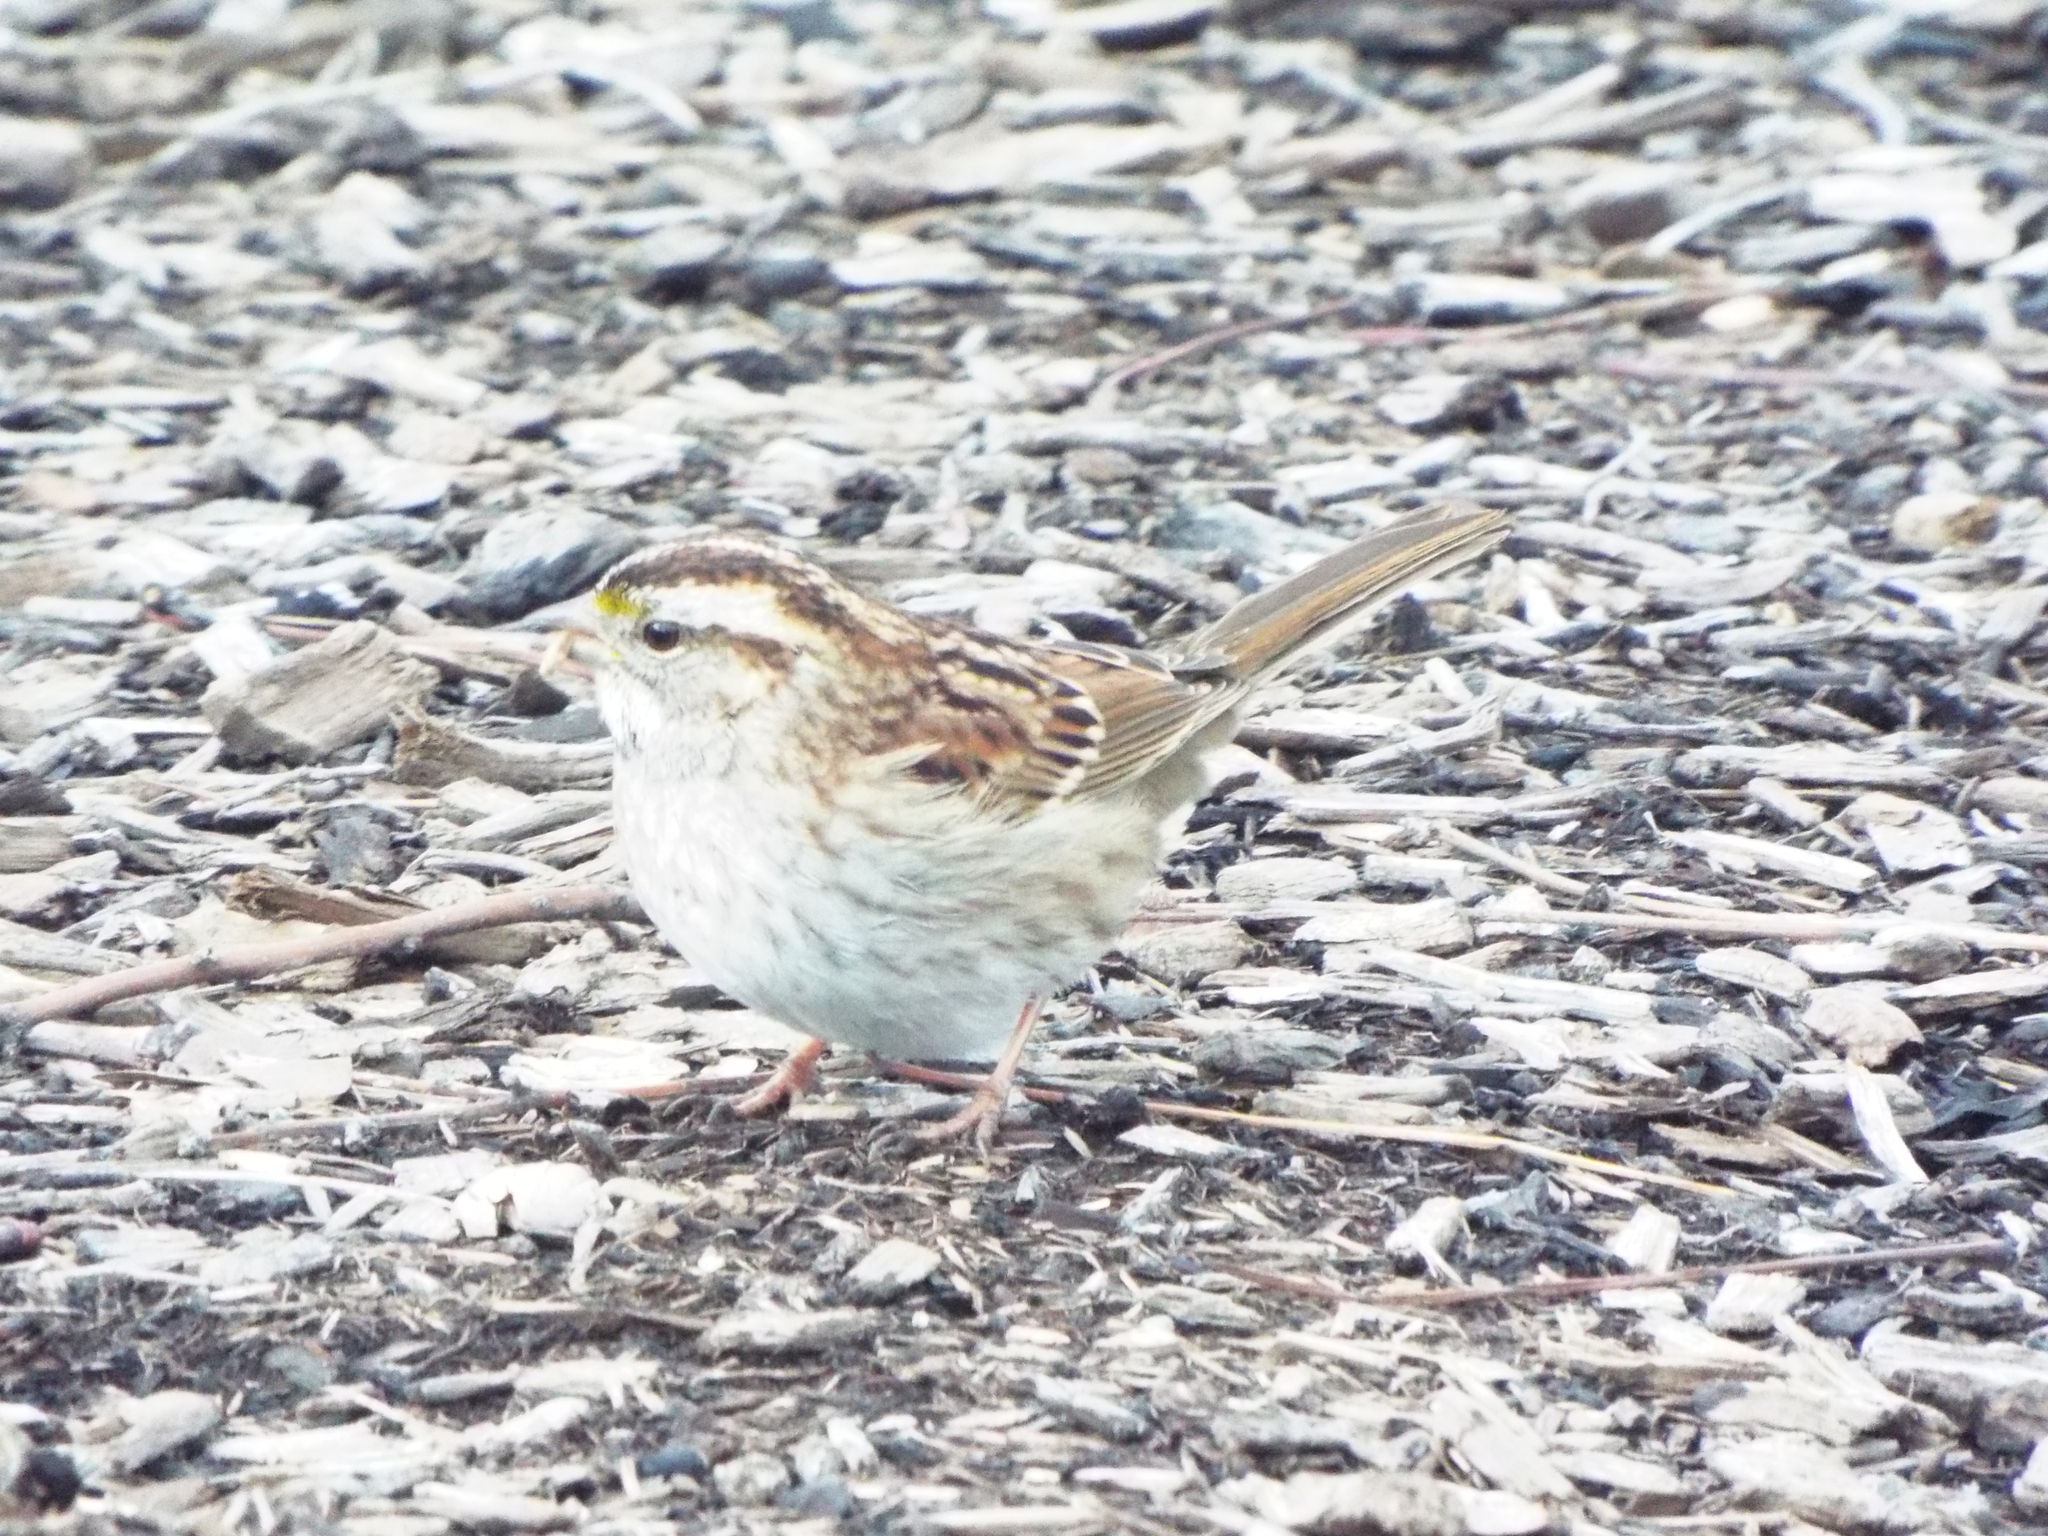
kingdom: Animalia
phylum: Chordata
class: Aves
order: Passeriformes
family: Passerellidae
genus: Zonotrichia
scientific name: Zonotrichia albicollis
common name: White-throated sparrow
